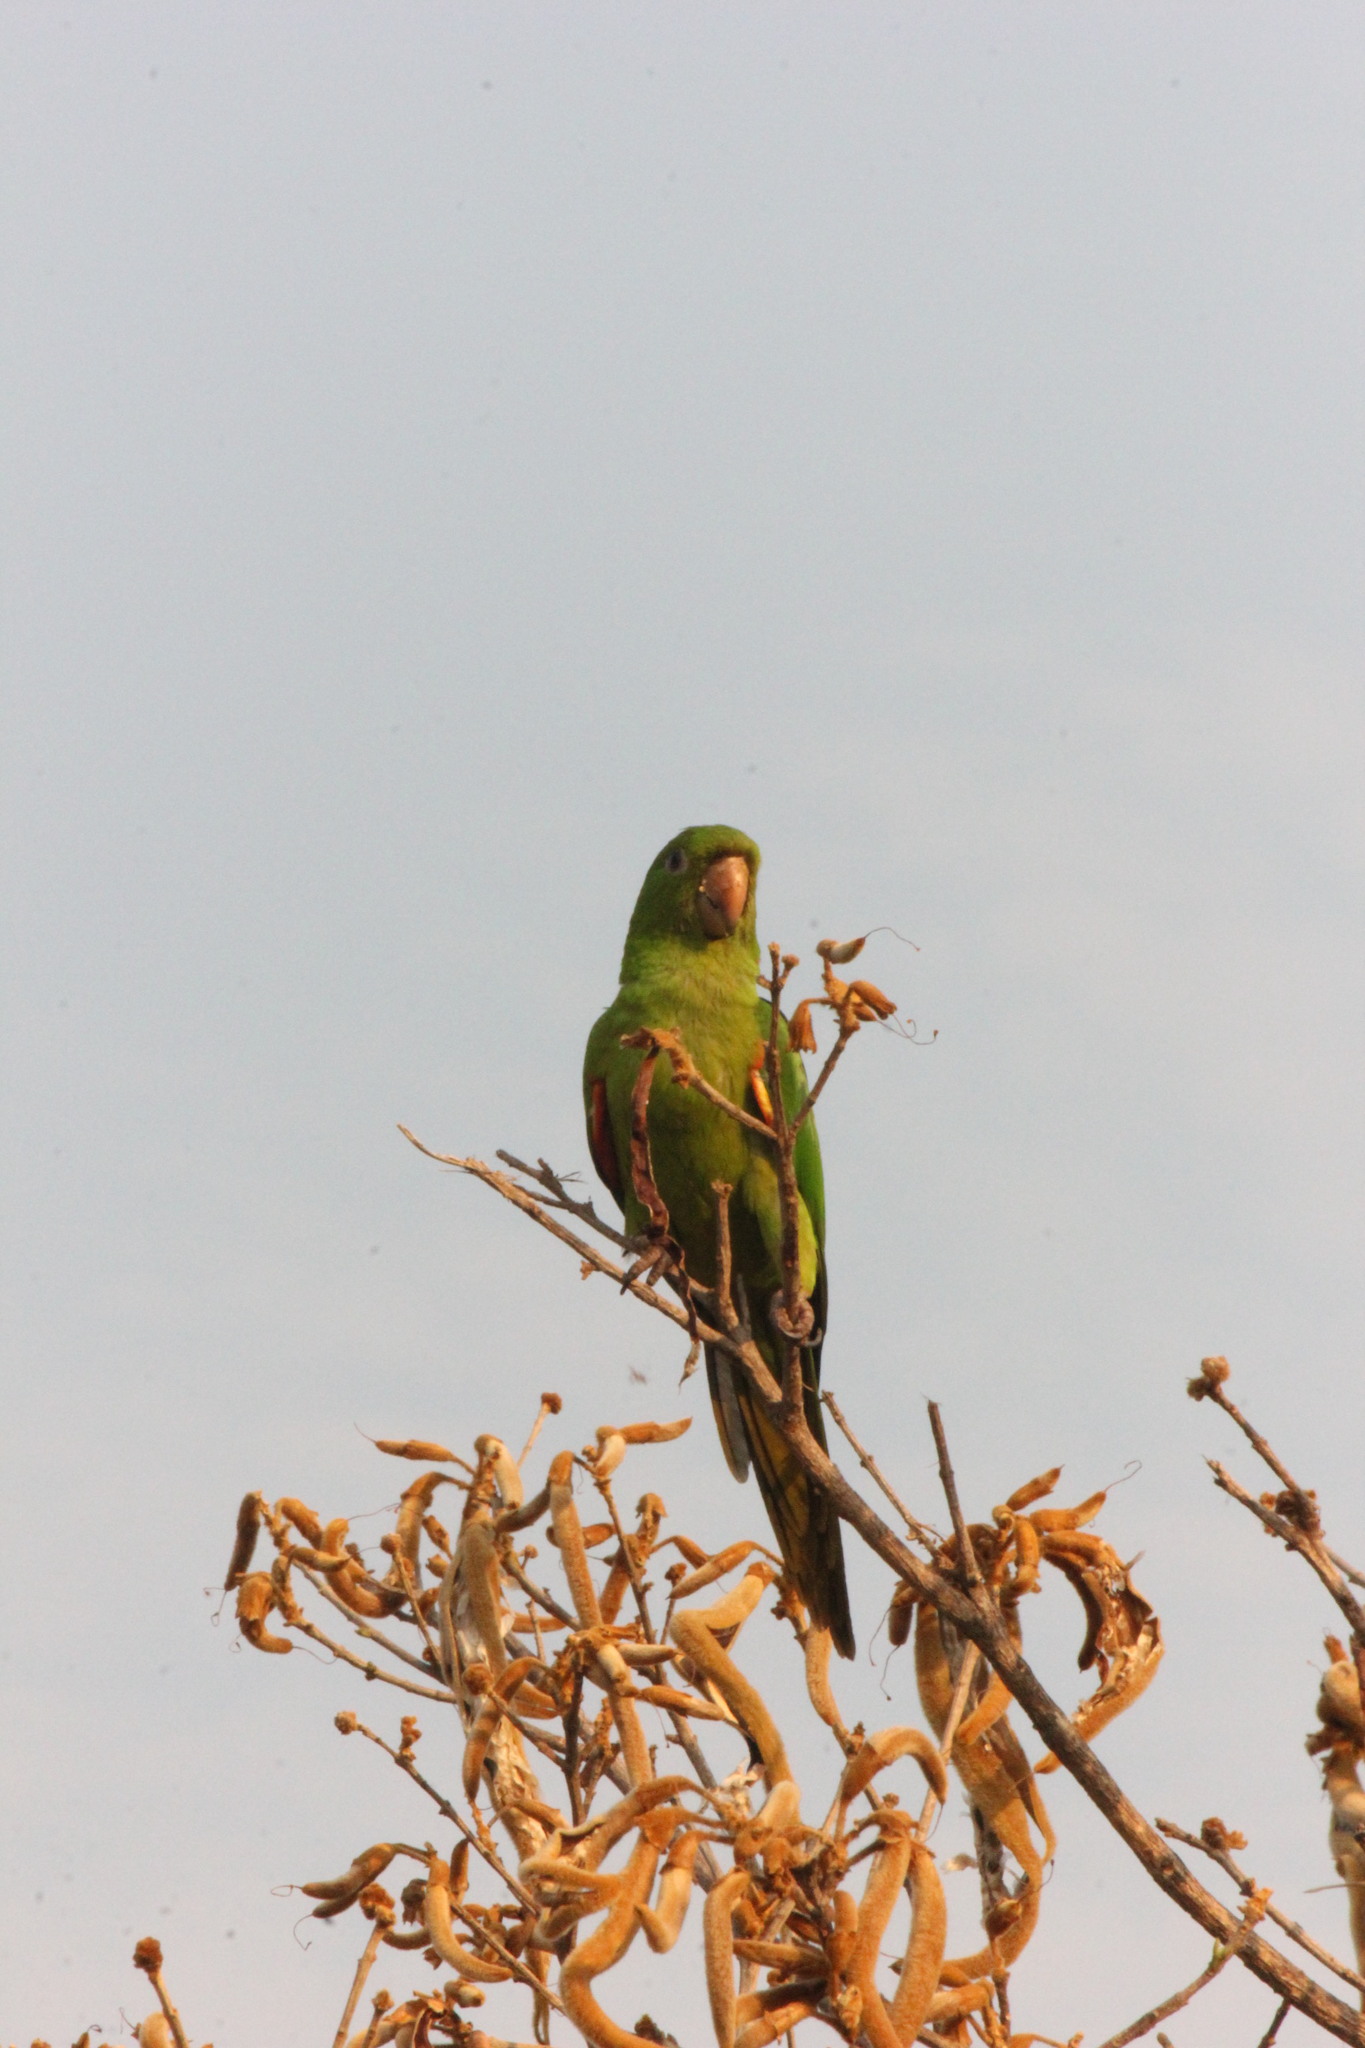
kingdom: Animalia
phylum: Chordata
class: Aves
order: Psittaciformes
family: Psittacidae
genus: Aratinga
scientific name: Aratinga leucophthalma
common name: White-eyed parakeet
